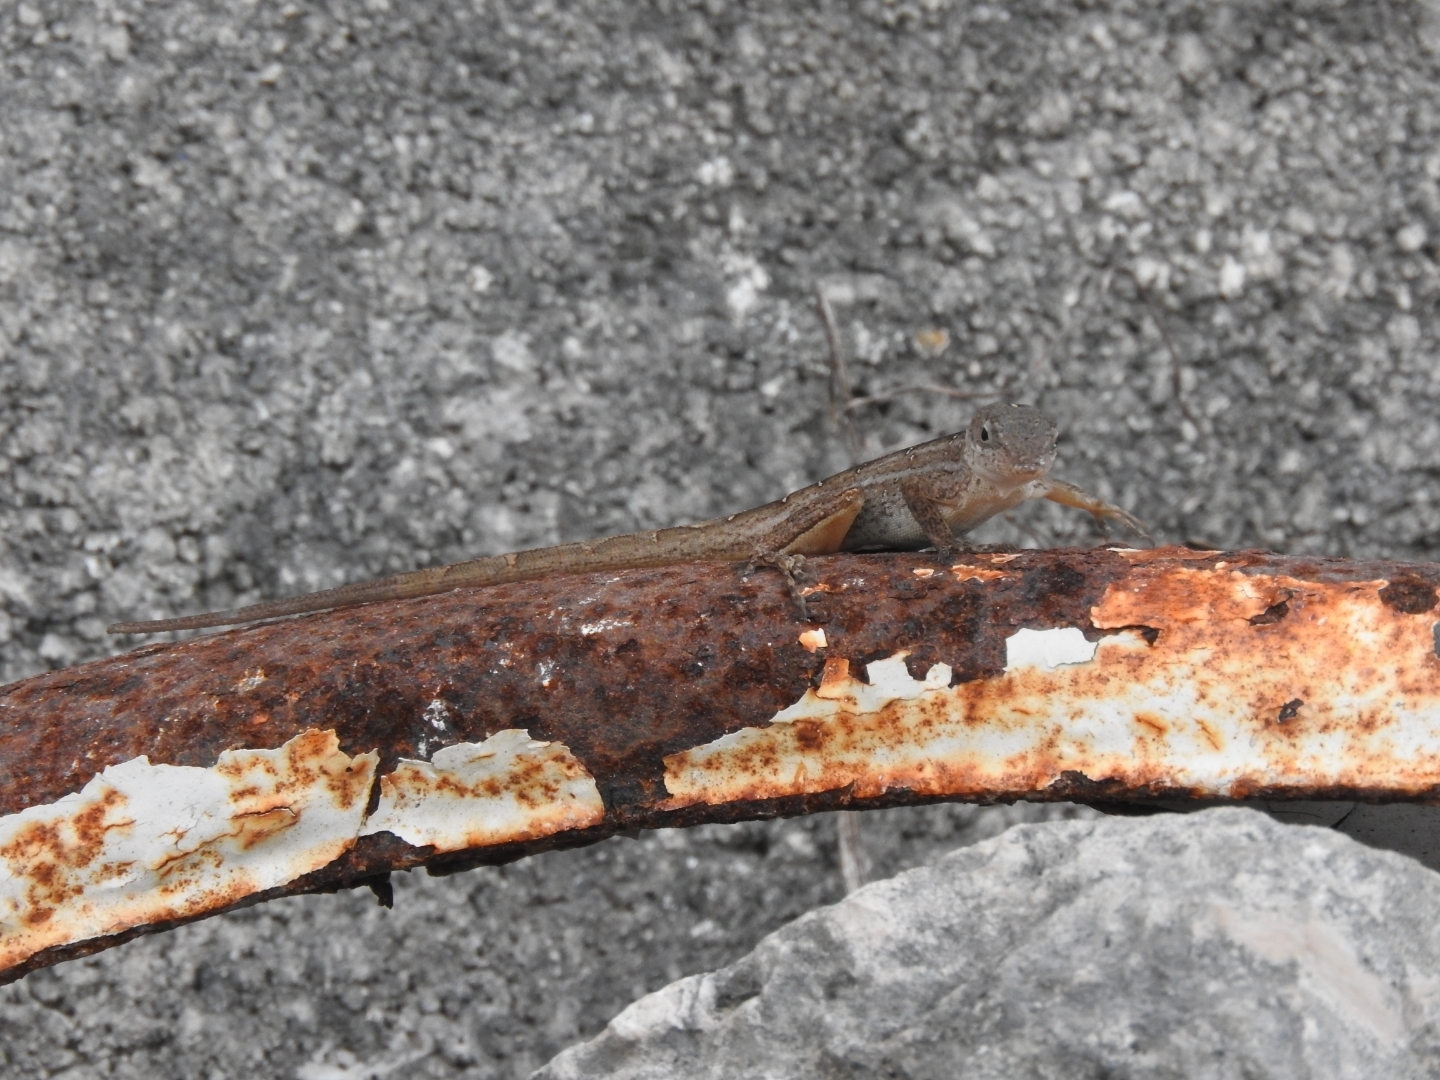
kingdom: Animalia
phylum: Chordata
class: Squamata
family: Dactyloidae
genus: Anolis
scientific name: Anolis sagrei
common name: Brown anole
